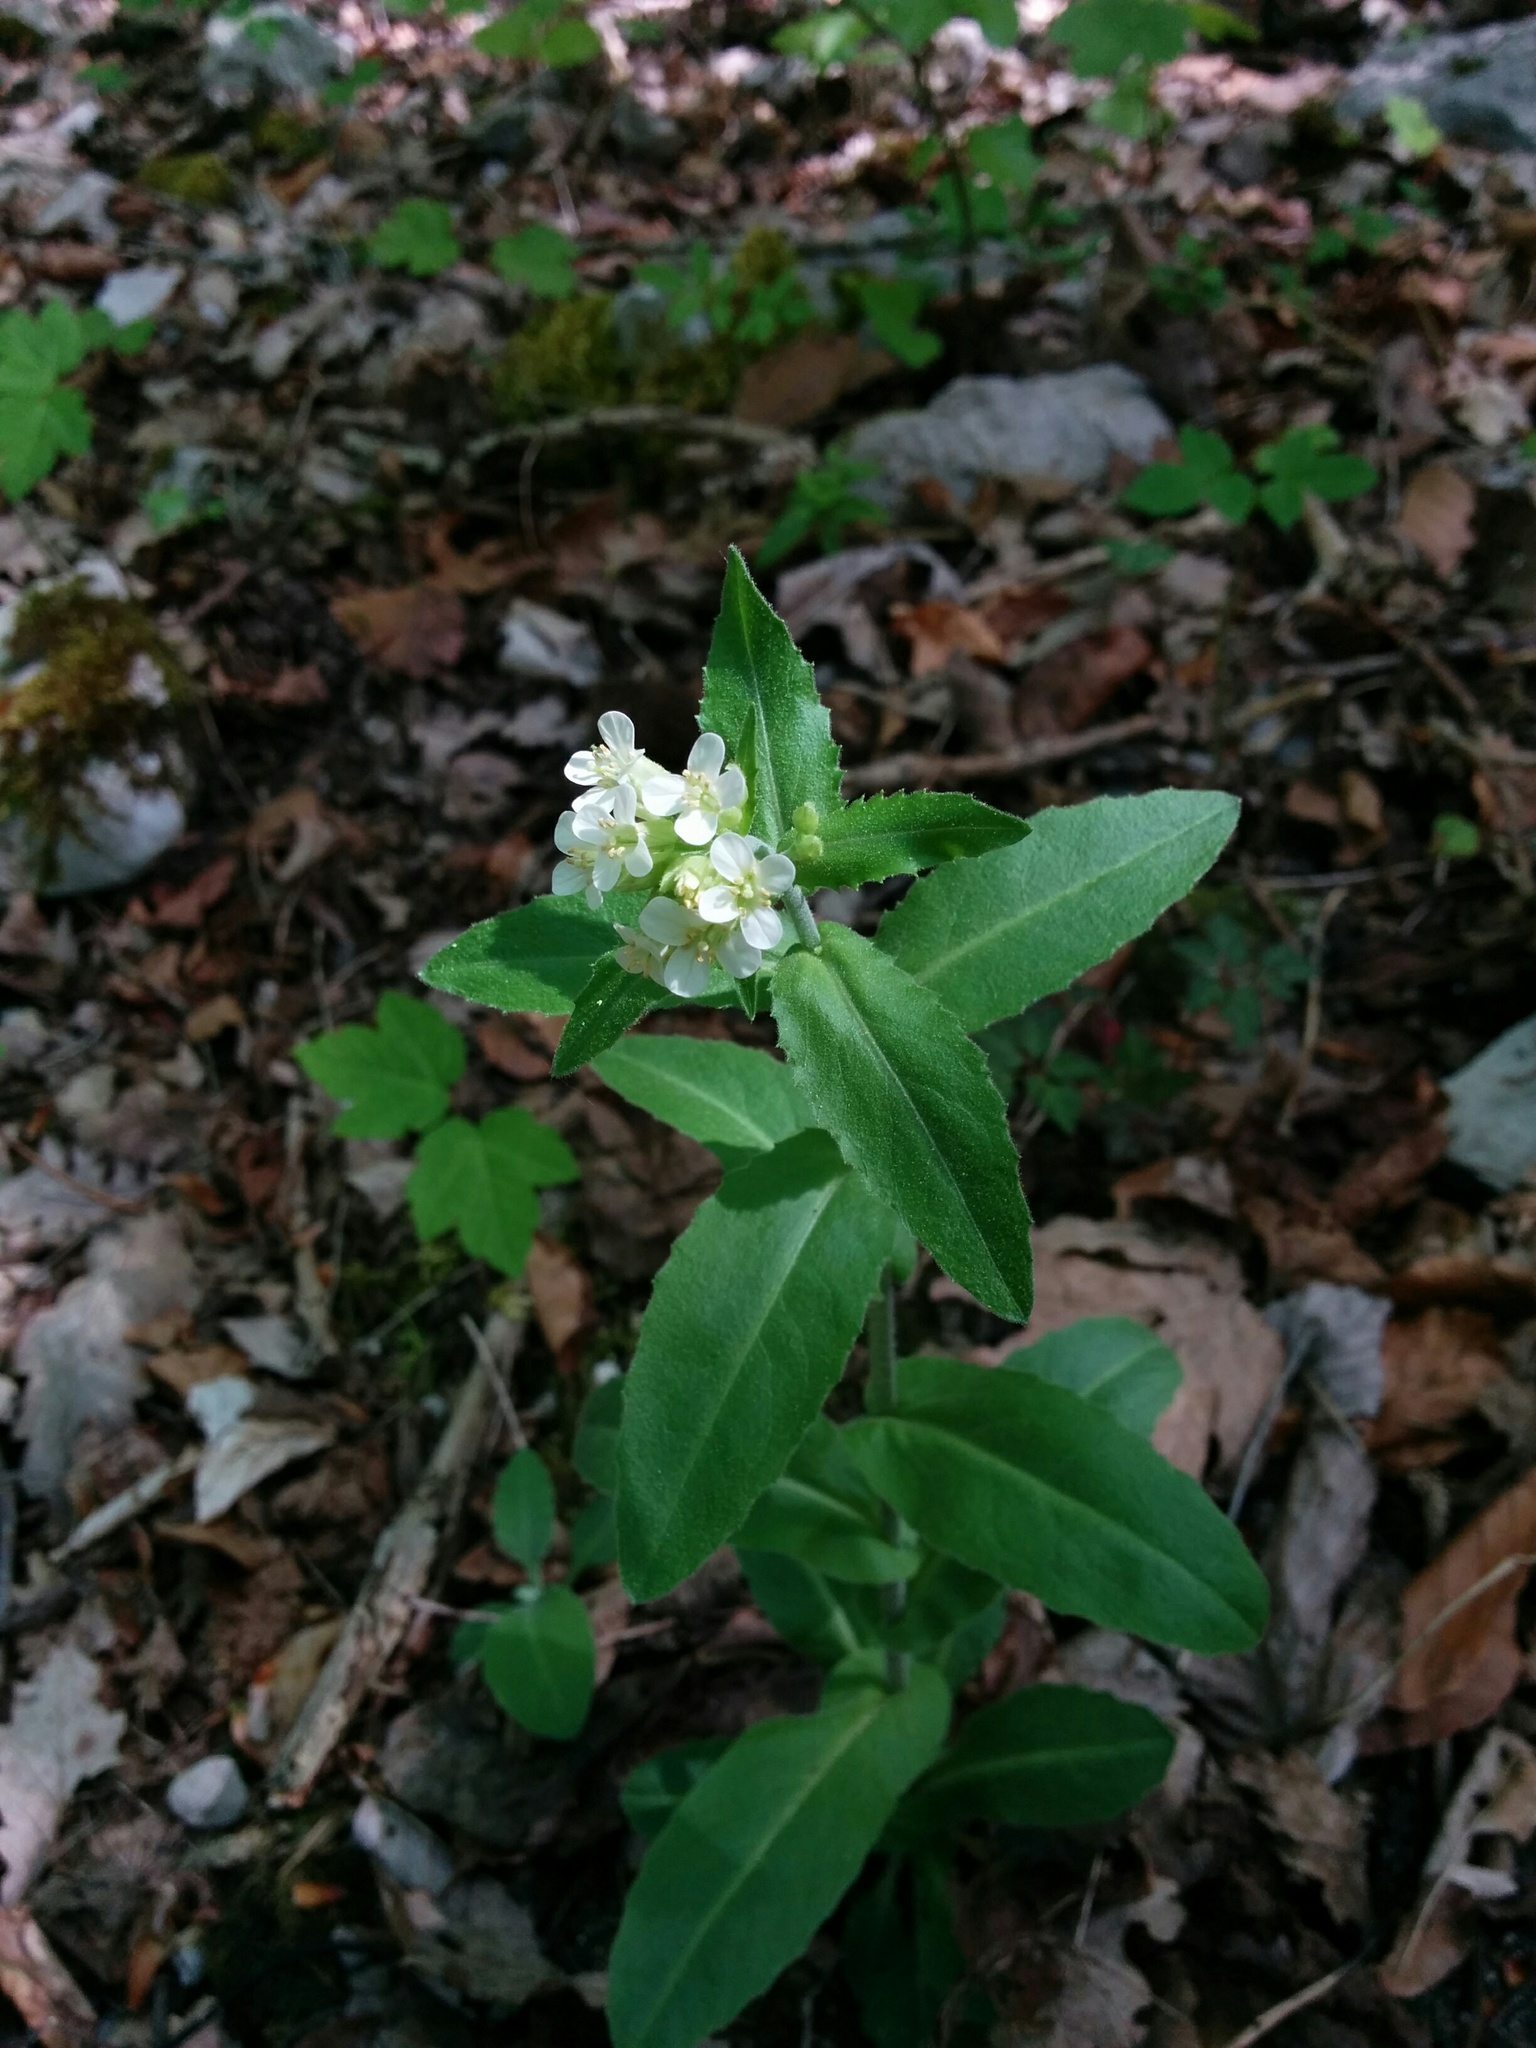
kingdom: Plantae
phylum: Tracheophyta
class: Magnoliopsida
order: Brassicales
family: Brassicaceae
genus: Pseudoturritis
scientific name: Pseudoturritis turrita
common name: Tower cress
